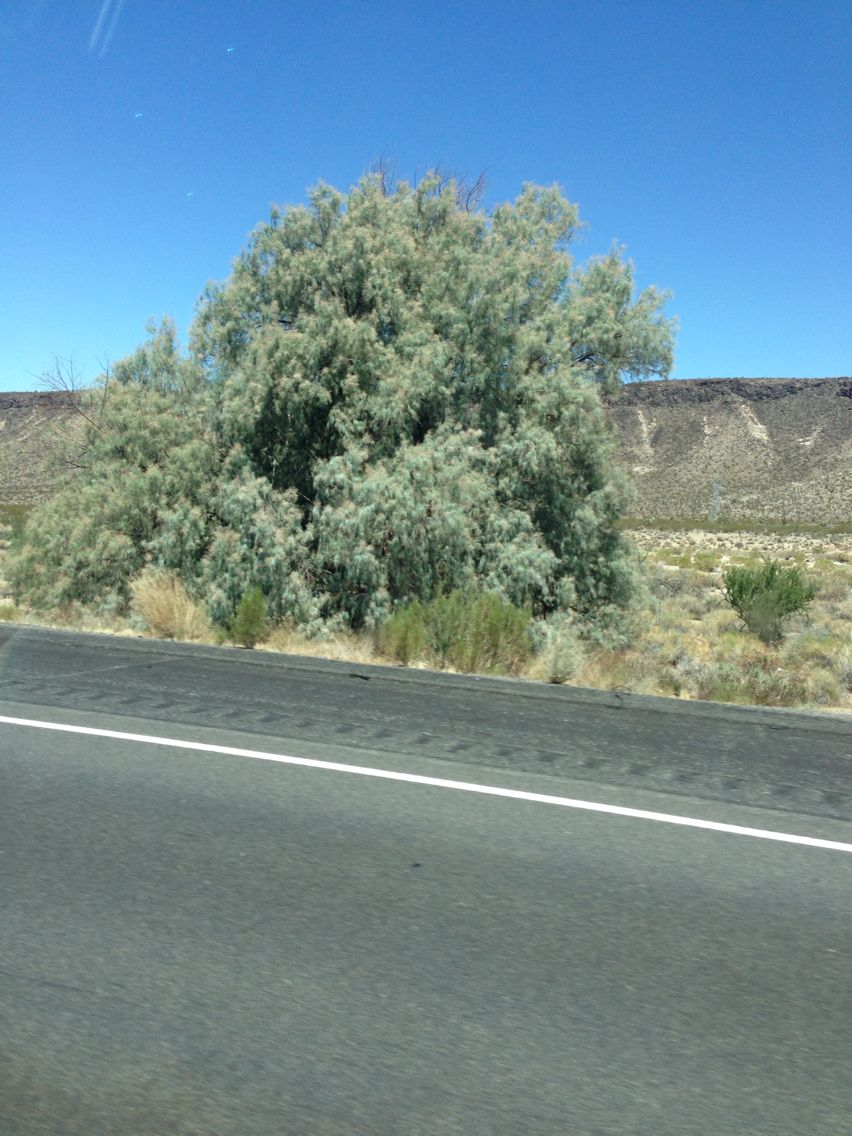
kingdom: Plantae
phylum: Tracheophyta
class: Magnoliopsida
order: Caryophyllales
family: Tamaricaceae
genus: Tamarix
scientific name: Tamarix aphylla
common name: Athel tamarisk
